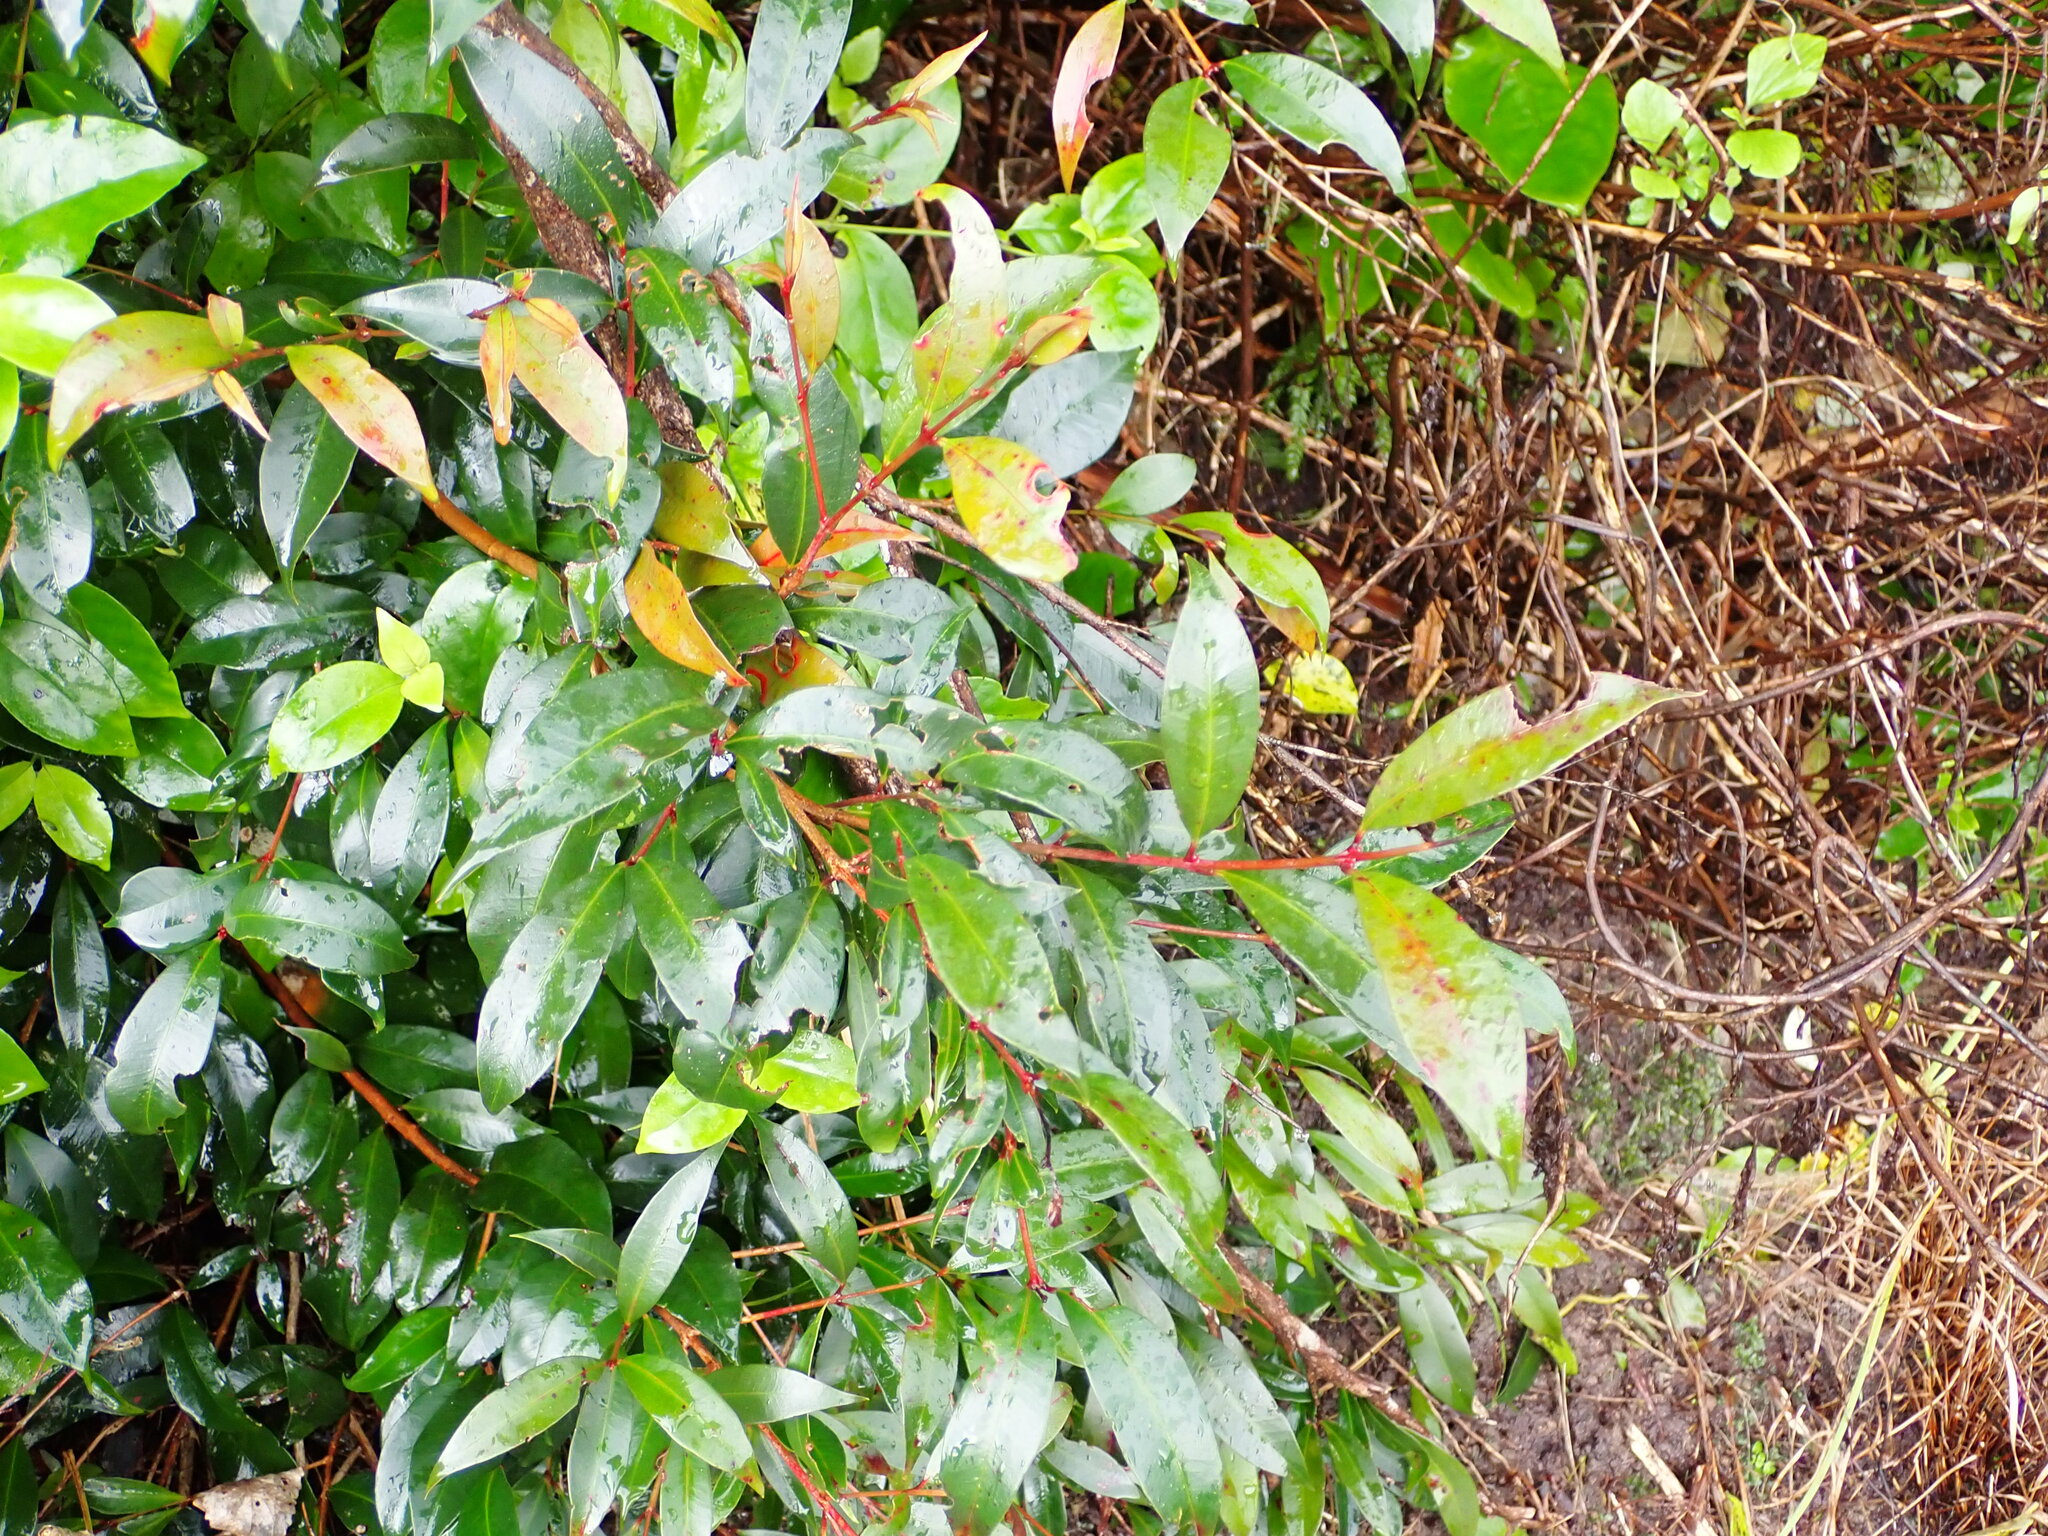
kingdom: Plantae
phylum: Tracheophyta
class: Magnoliopsida
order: Myrtales
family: Myrtaceae
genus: Syzygium
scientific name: Syzygium paniculatum
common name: Magenta lilly-pilly
